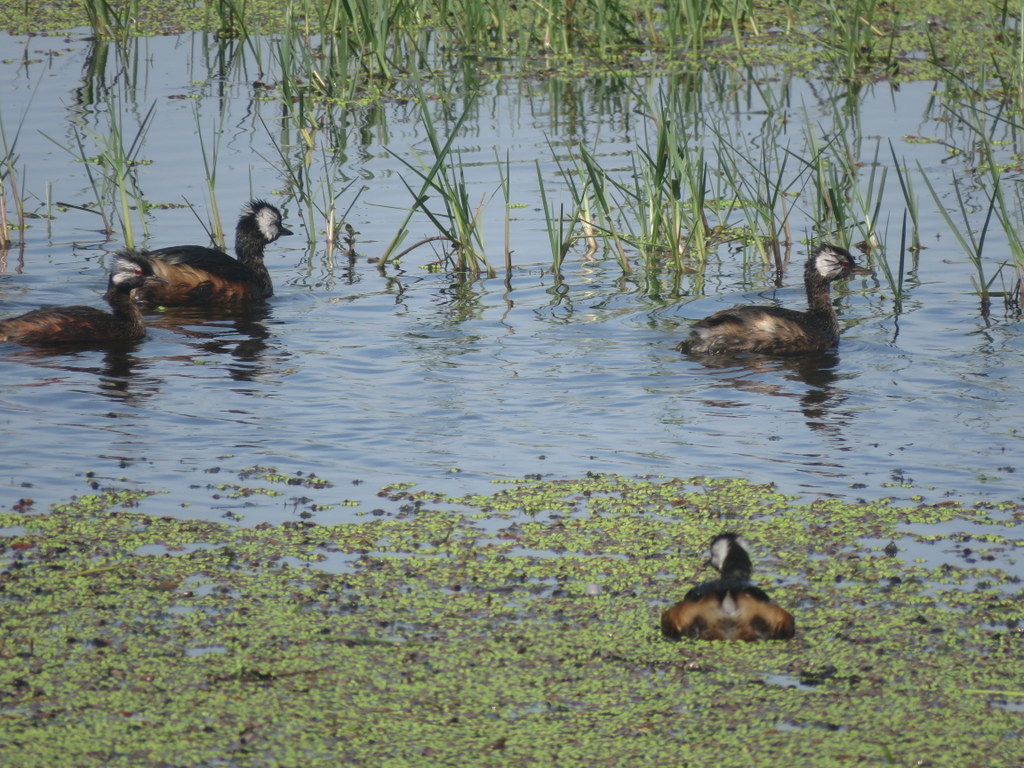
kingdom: Animalia
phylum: Chordata
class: Aves
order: Podicipediformes
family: Podicipedidae
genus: Rollandia
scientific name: Rollandia rolland
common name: White-tufted grebe
